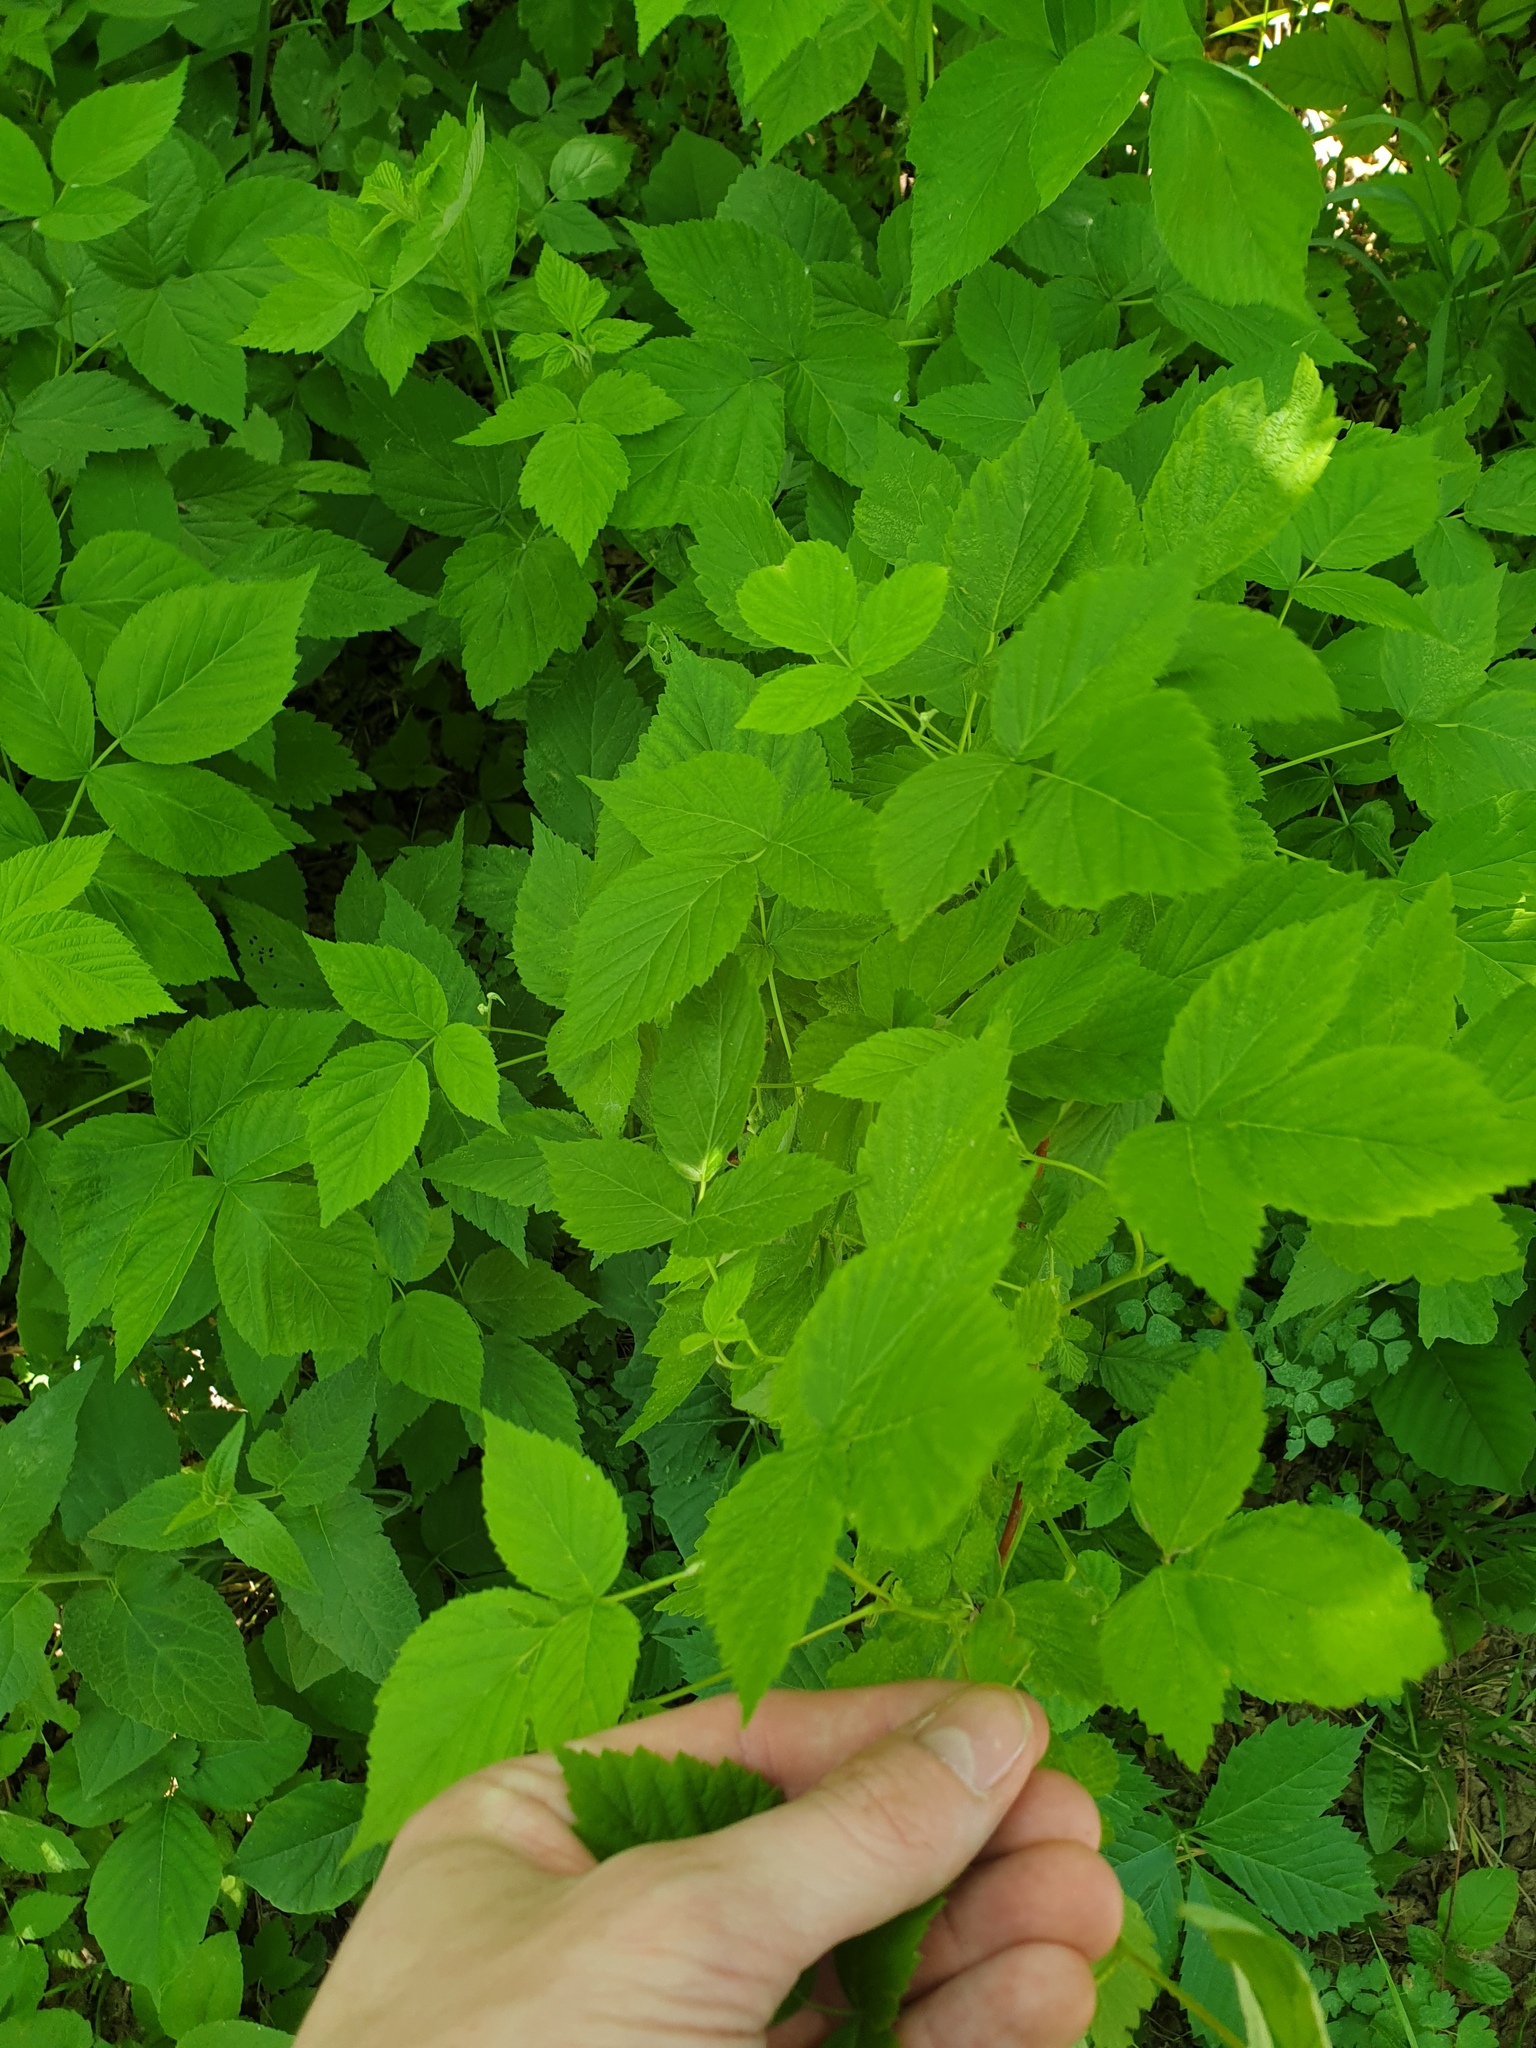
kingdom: Plantae
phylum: Tracheophyta
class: Magnoliopsida
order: Rosales
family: Rosaceae
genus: Rubus
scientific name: Rubus idaeus
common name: Raspberry
